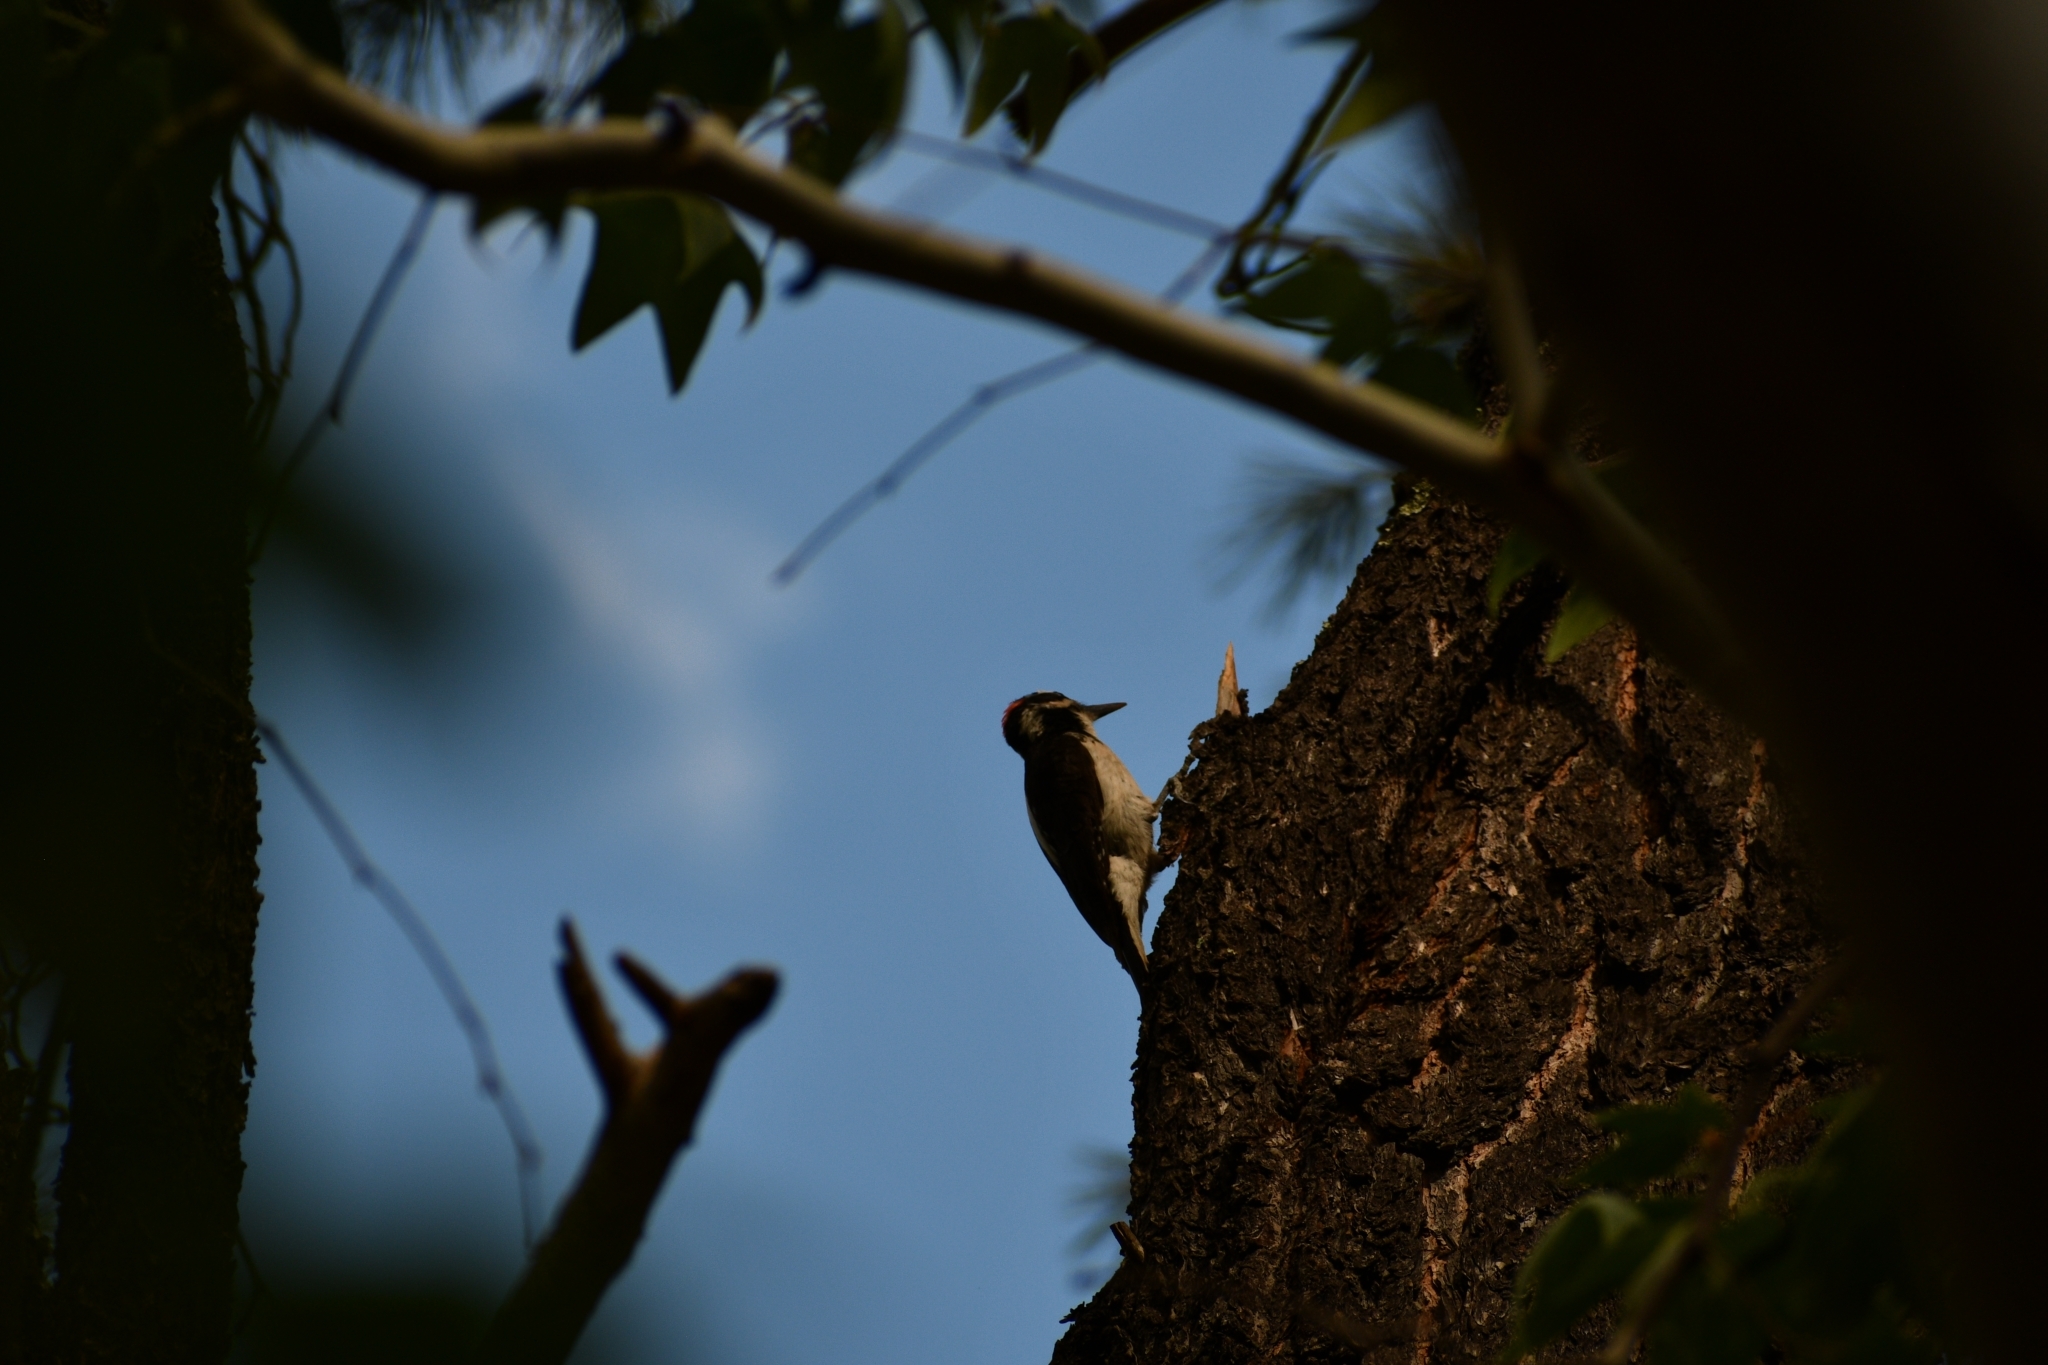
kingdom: Animalia
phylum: Chordata
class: Aves
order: Piciformes
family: Picidae
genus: Leuconotopicus
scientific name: Leuconotopicus villosus
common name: Hairy woodpecker
